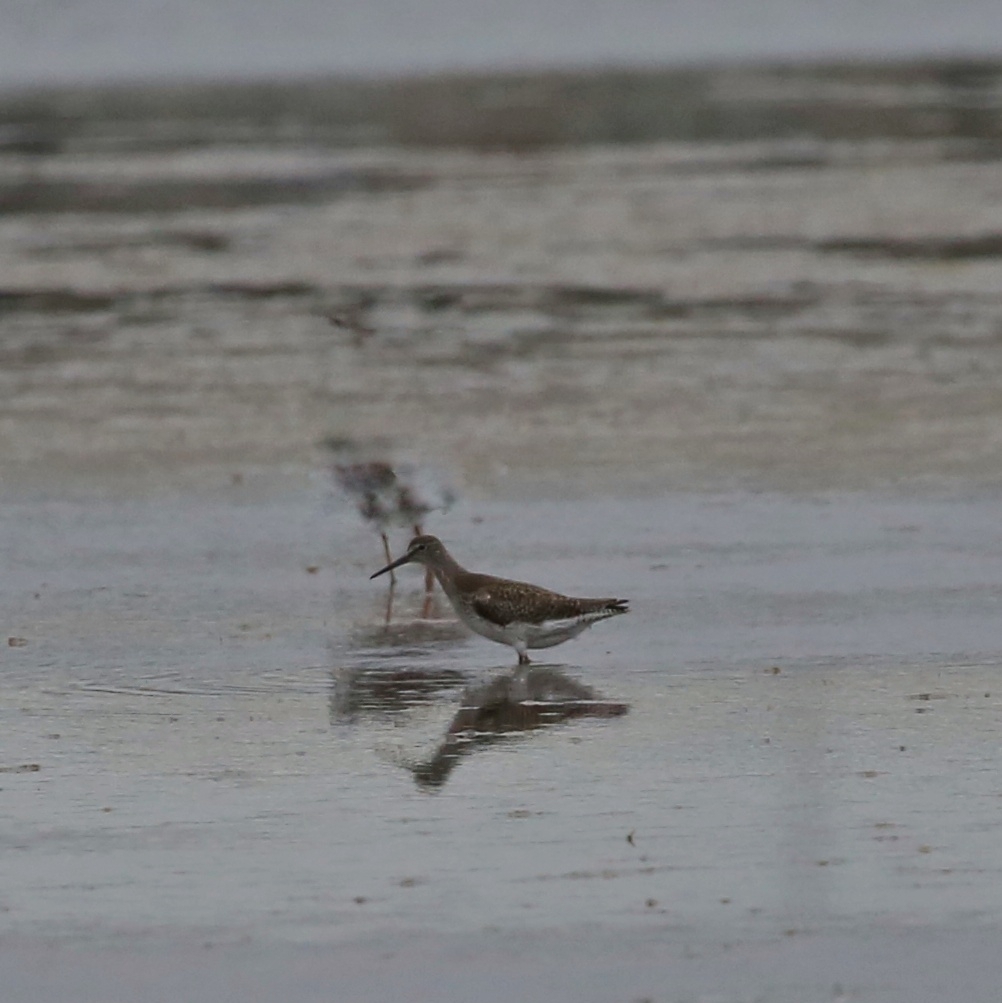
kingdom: Animalia
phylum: Chordata
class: Aves
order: Charadriiformes
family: Scolopacidae
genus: Tringa
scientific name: Tringa ochropus
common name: Green sandpiper
